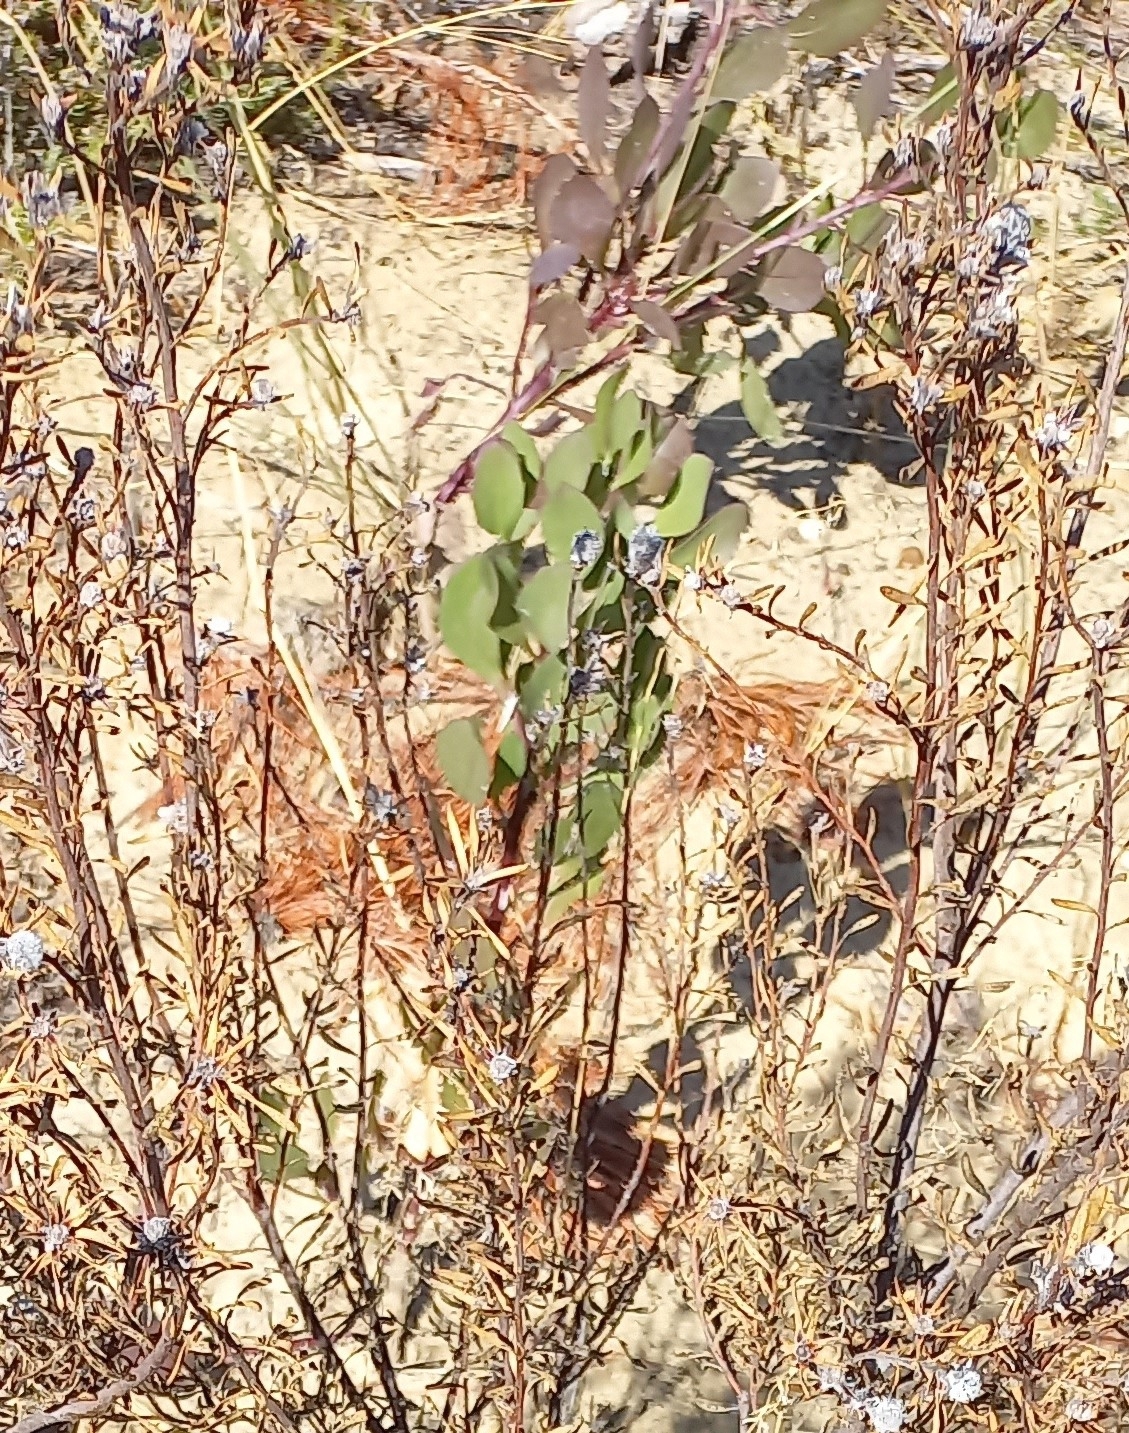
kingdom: Plantae
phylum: Tracheophyta
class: Magnoliopsida
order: Asterales
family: Asteraceae
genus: Osteospermum
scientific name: Osteospermum moniliferum
